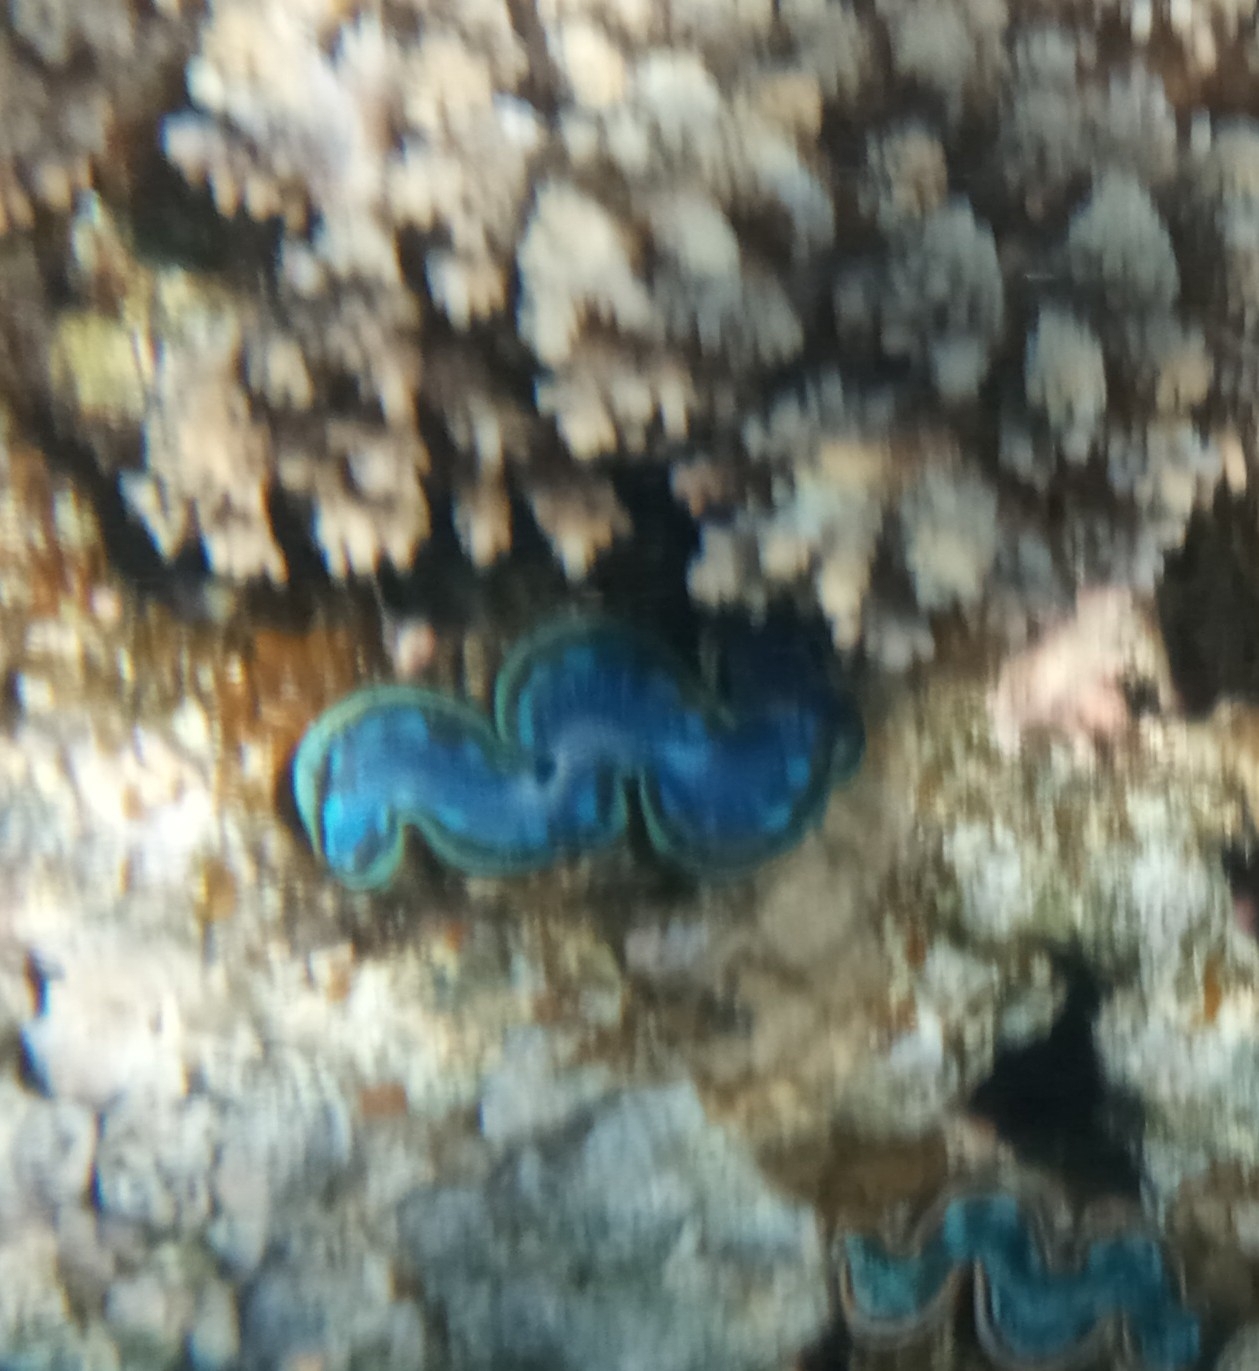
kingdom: Animalia
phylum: Mollusca
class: Bivalvia
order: Cardiida
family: Cardiidae
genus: Tridacna
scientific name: Tridacna maxima
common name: Small giant clam
